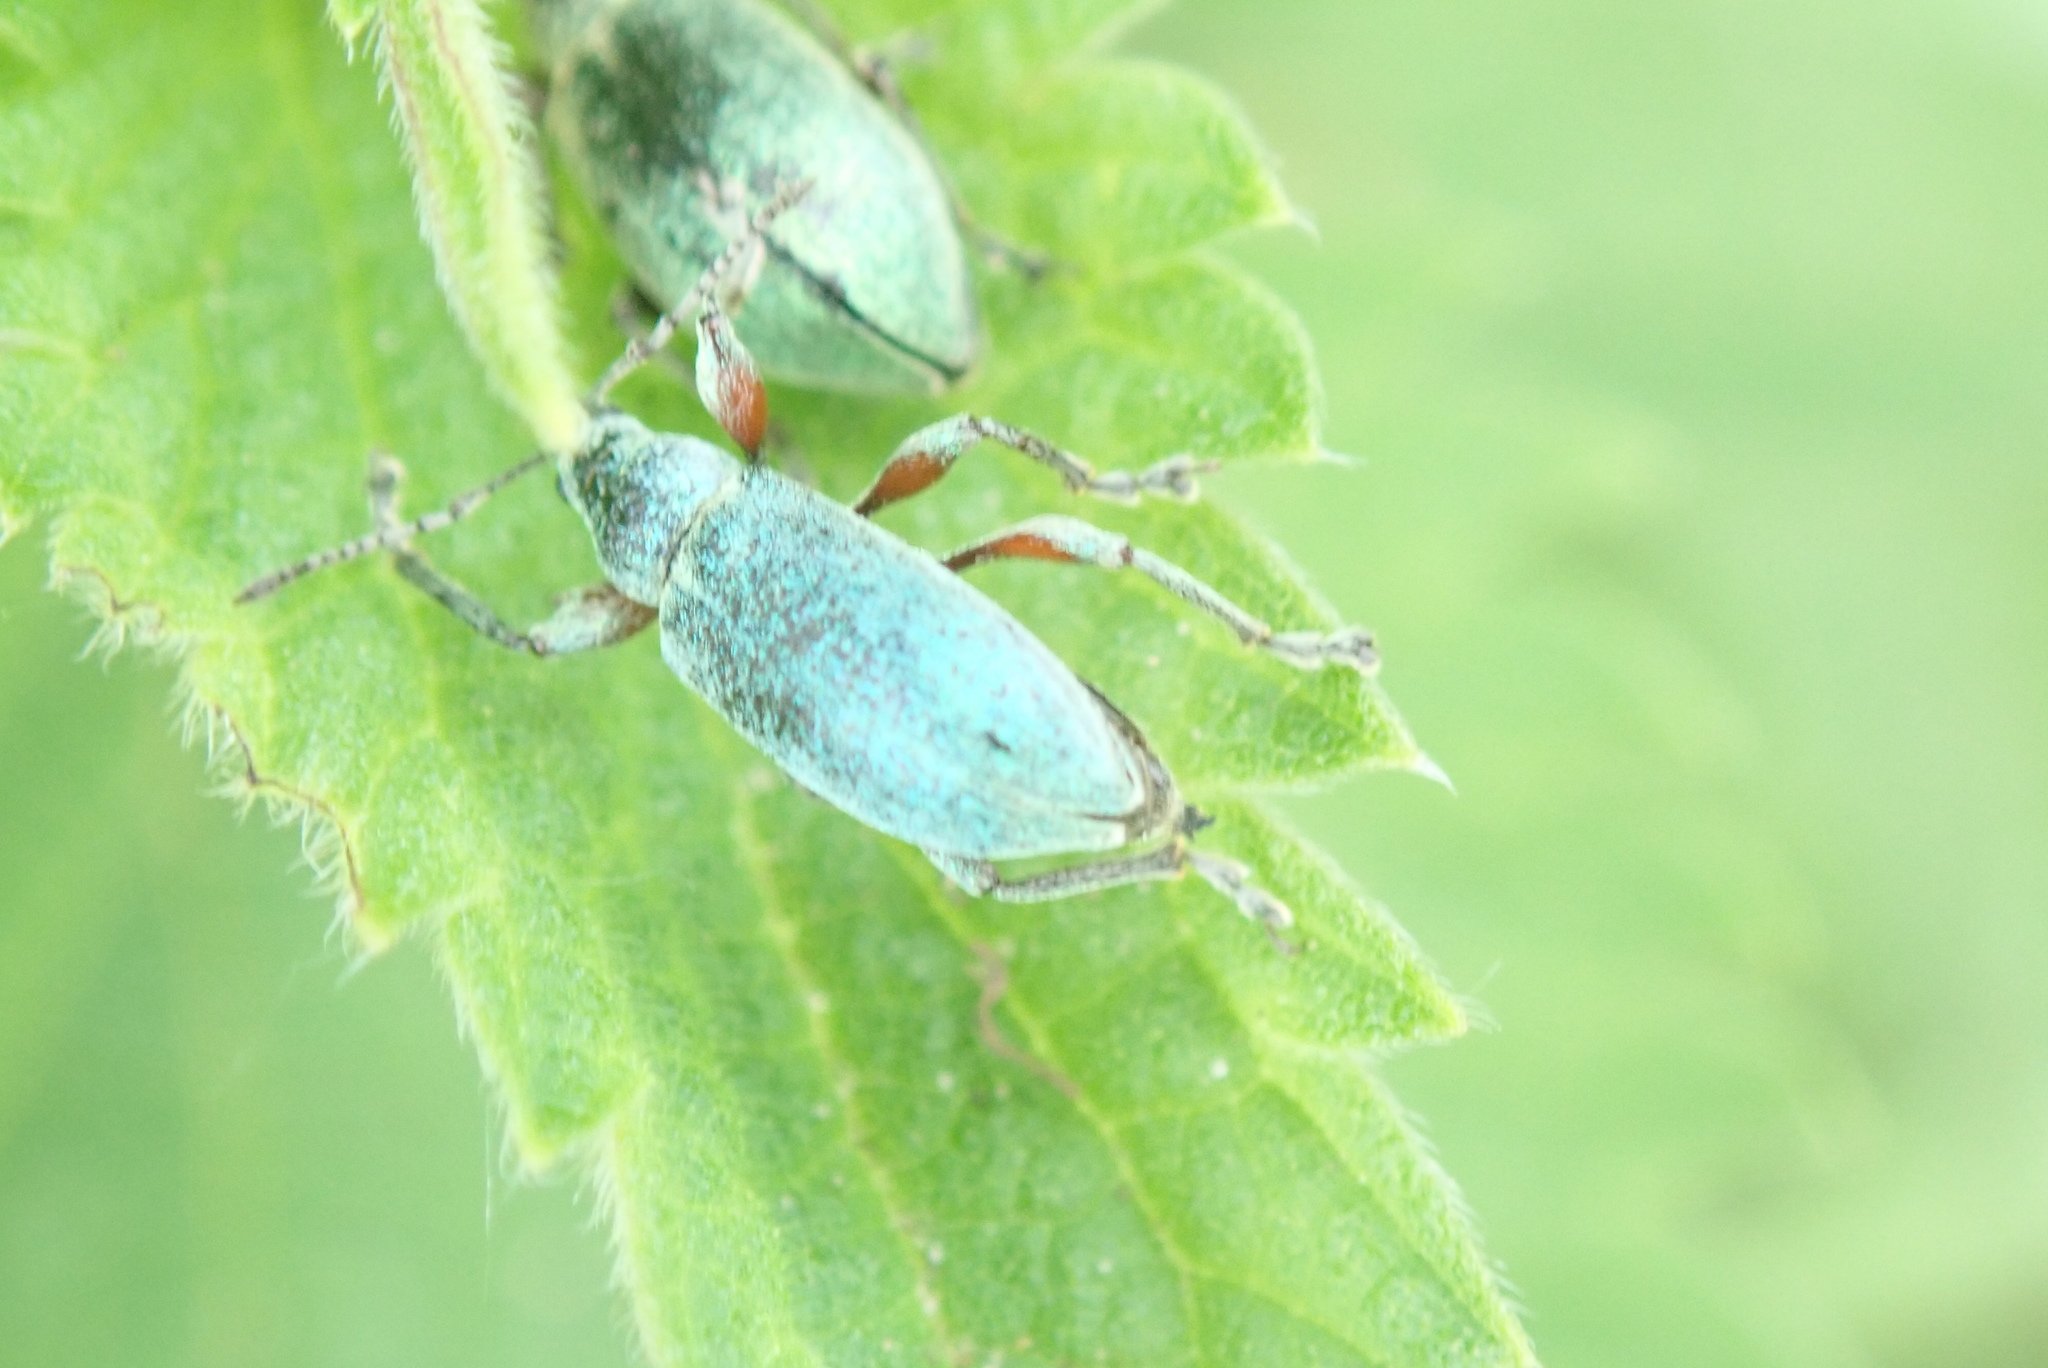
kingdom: Animalia
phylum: Arthropoda
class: Insecta
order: Coleoptera
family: Curculionidae
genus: Phyllobius
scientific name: Phyllobius pomaceus
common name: Green nettle weevil
